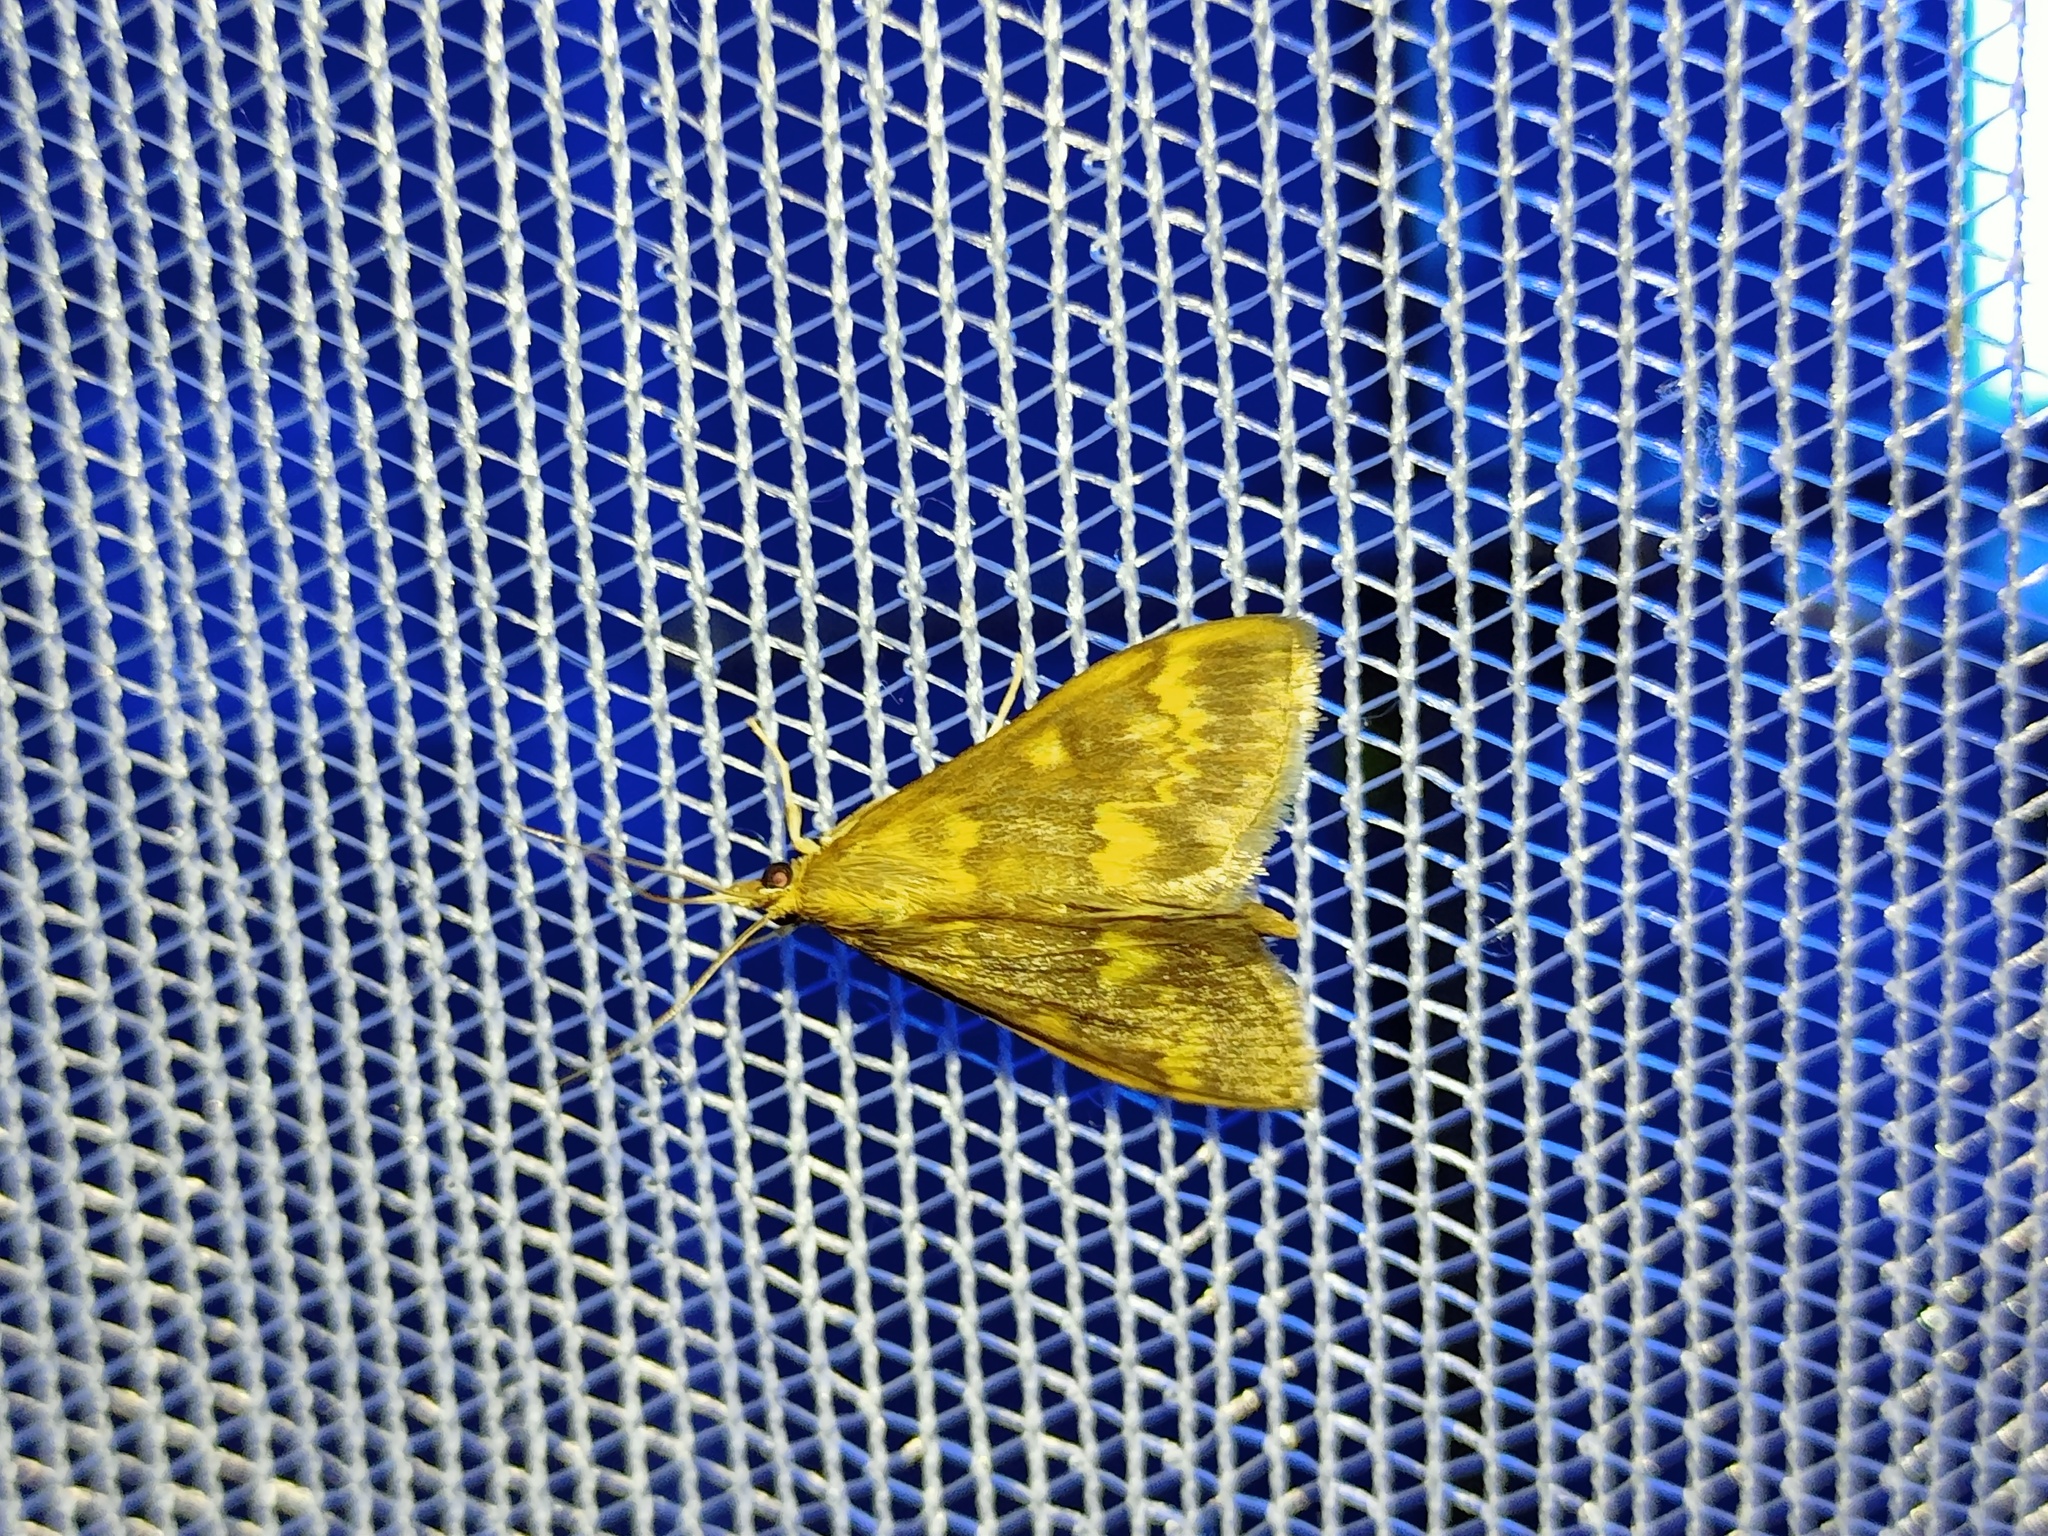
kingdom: Animalia
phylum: Arthropoda
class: Insecta
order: Lepidoptera
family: Crambidae
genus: Ostrinia
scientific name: Ostrinia nubilalis
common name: European corn borer
